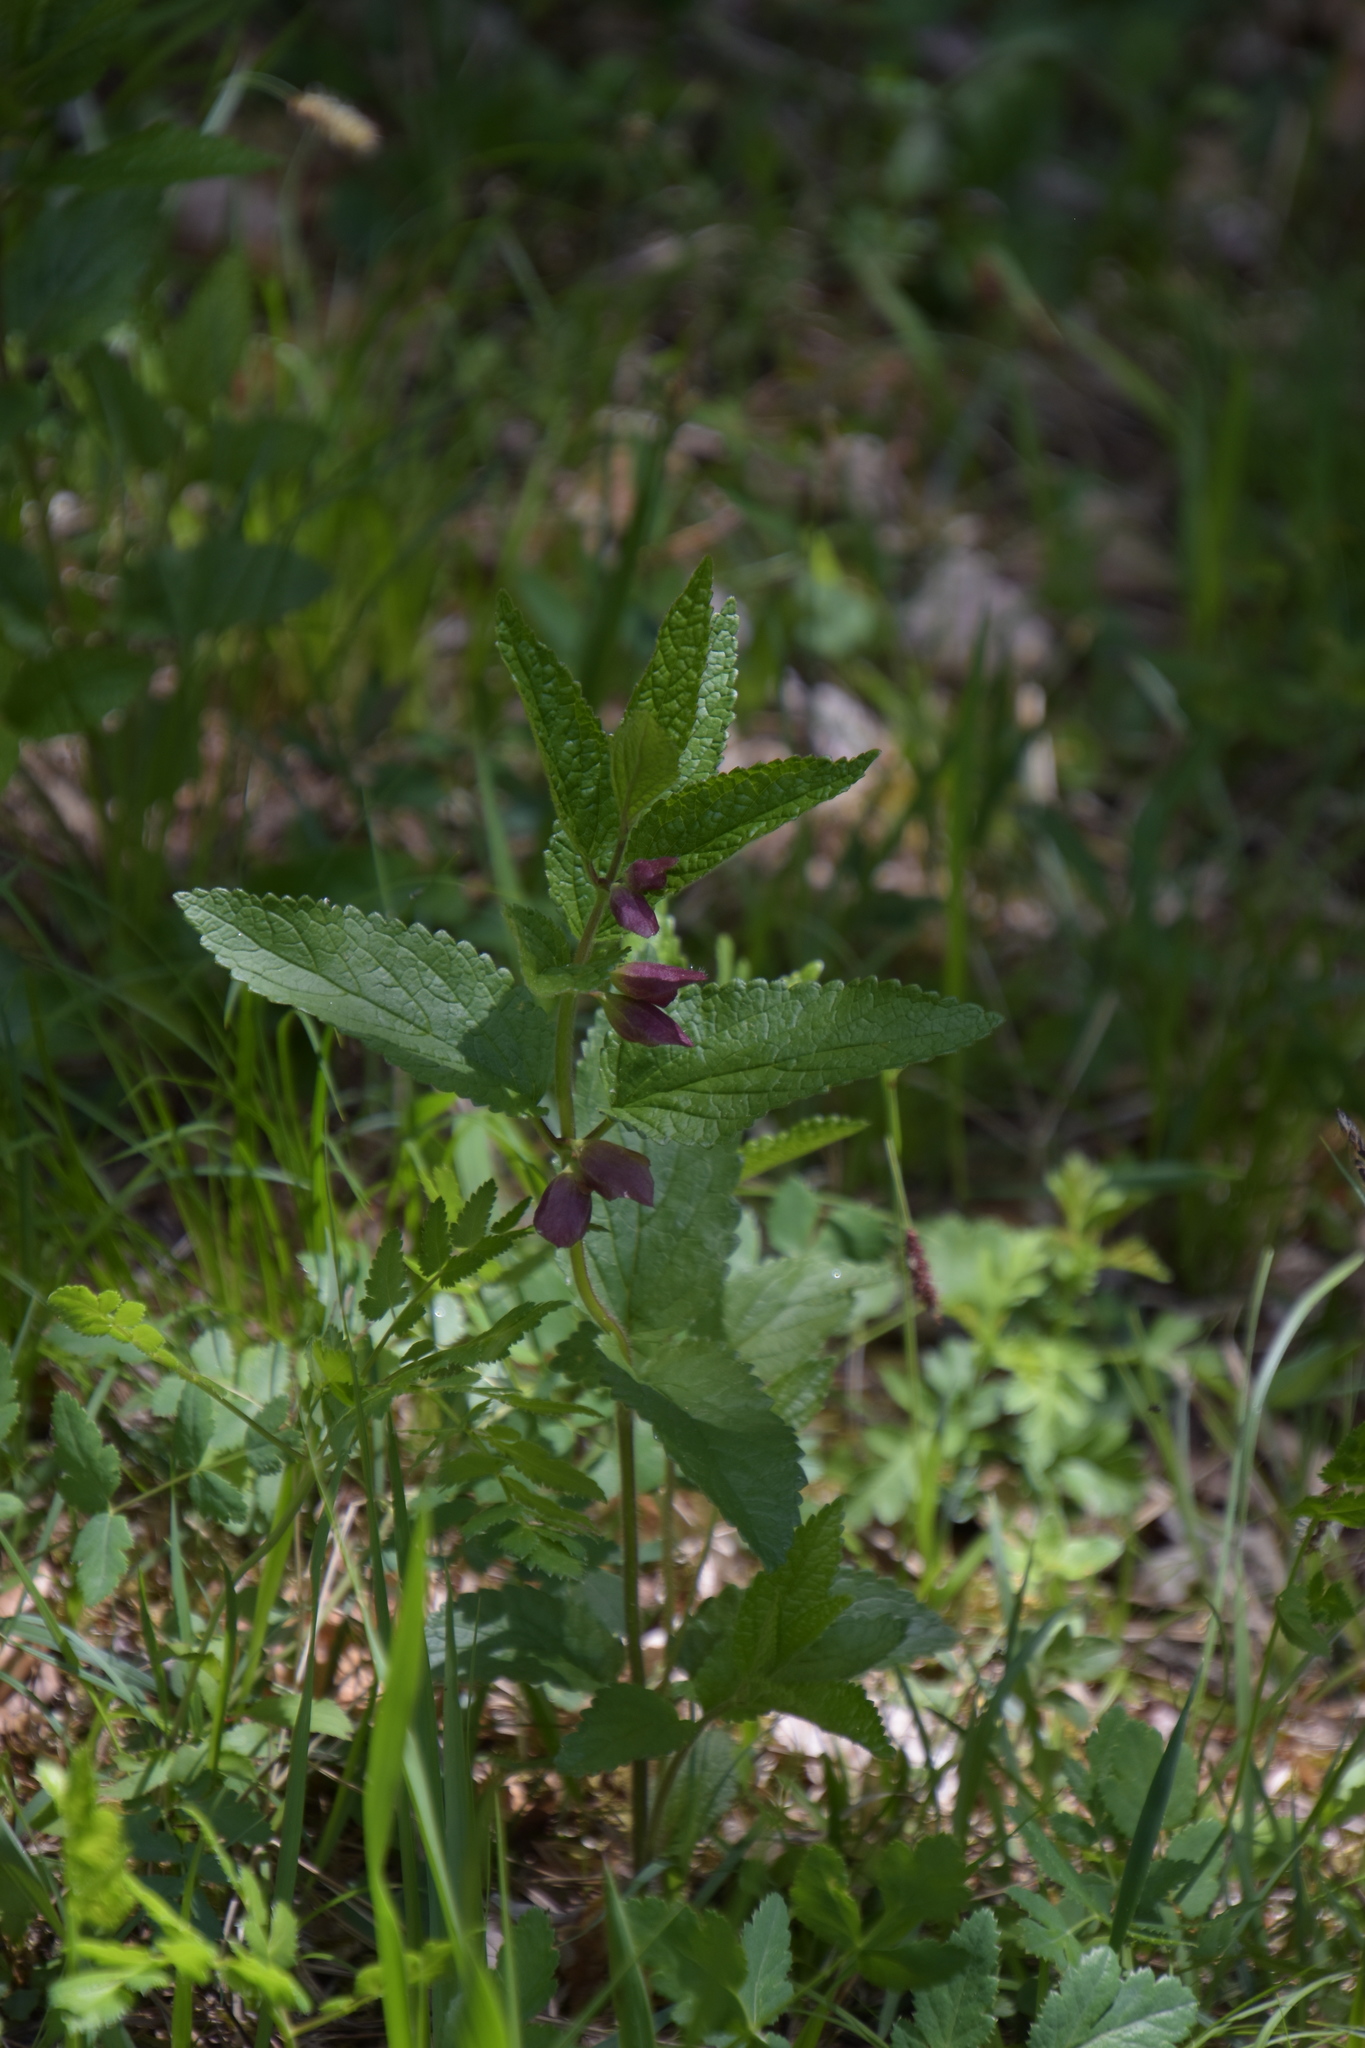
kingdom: Plantae
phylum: Tracheophyta
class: Magnoliopsida
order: Lamiales
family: Lamiaceae
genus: Melittis
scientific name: Melittis melissophyllum
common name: Bastard balm
